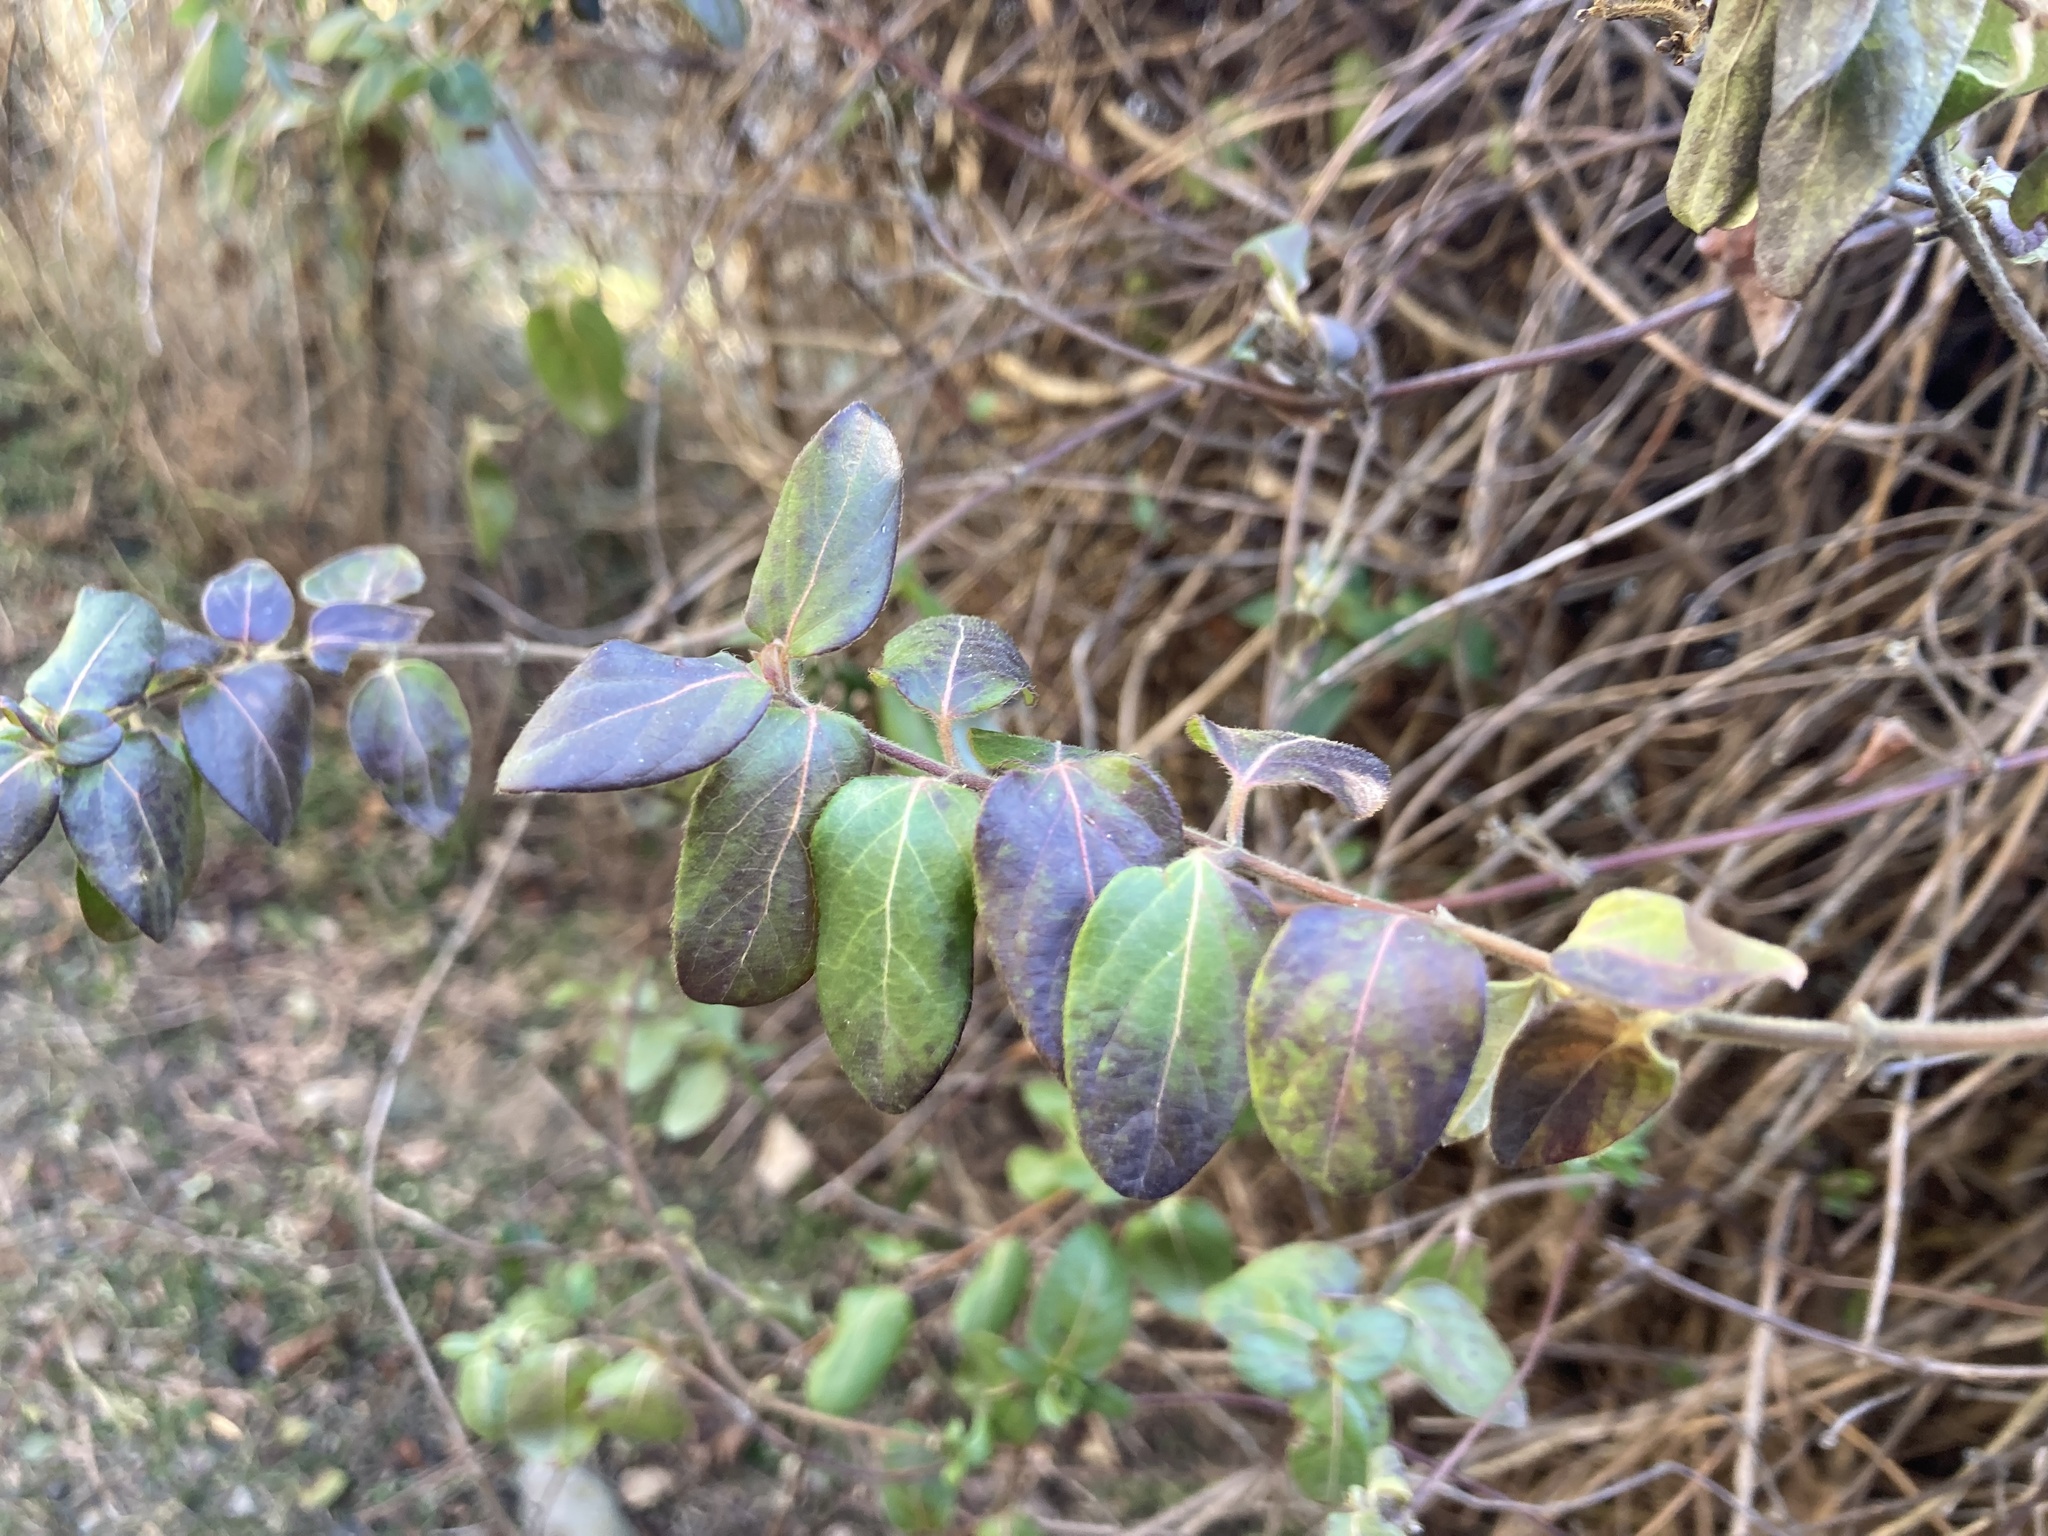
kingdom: Plantae
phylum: Tracheophyta
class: Magnoliopsida
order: Dipsacales
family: Caprifoliaceae
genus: Lonicera
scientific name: Lonicera japonica
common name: Japanese honeysuckle
